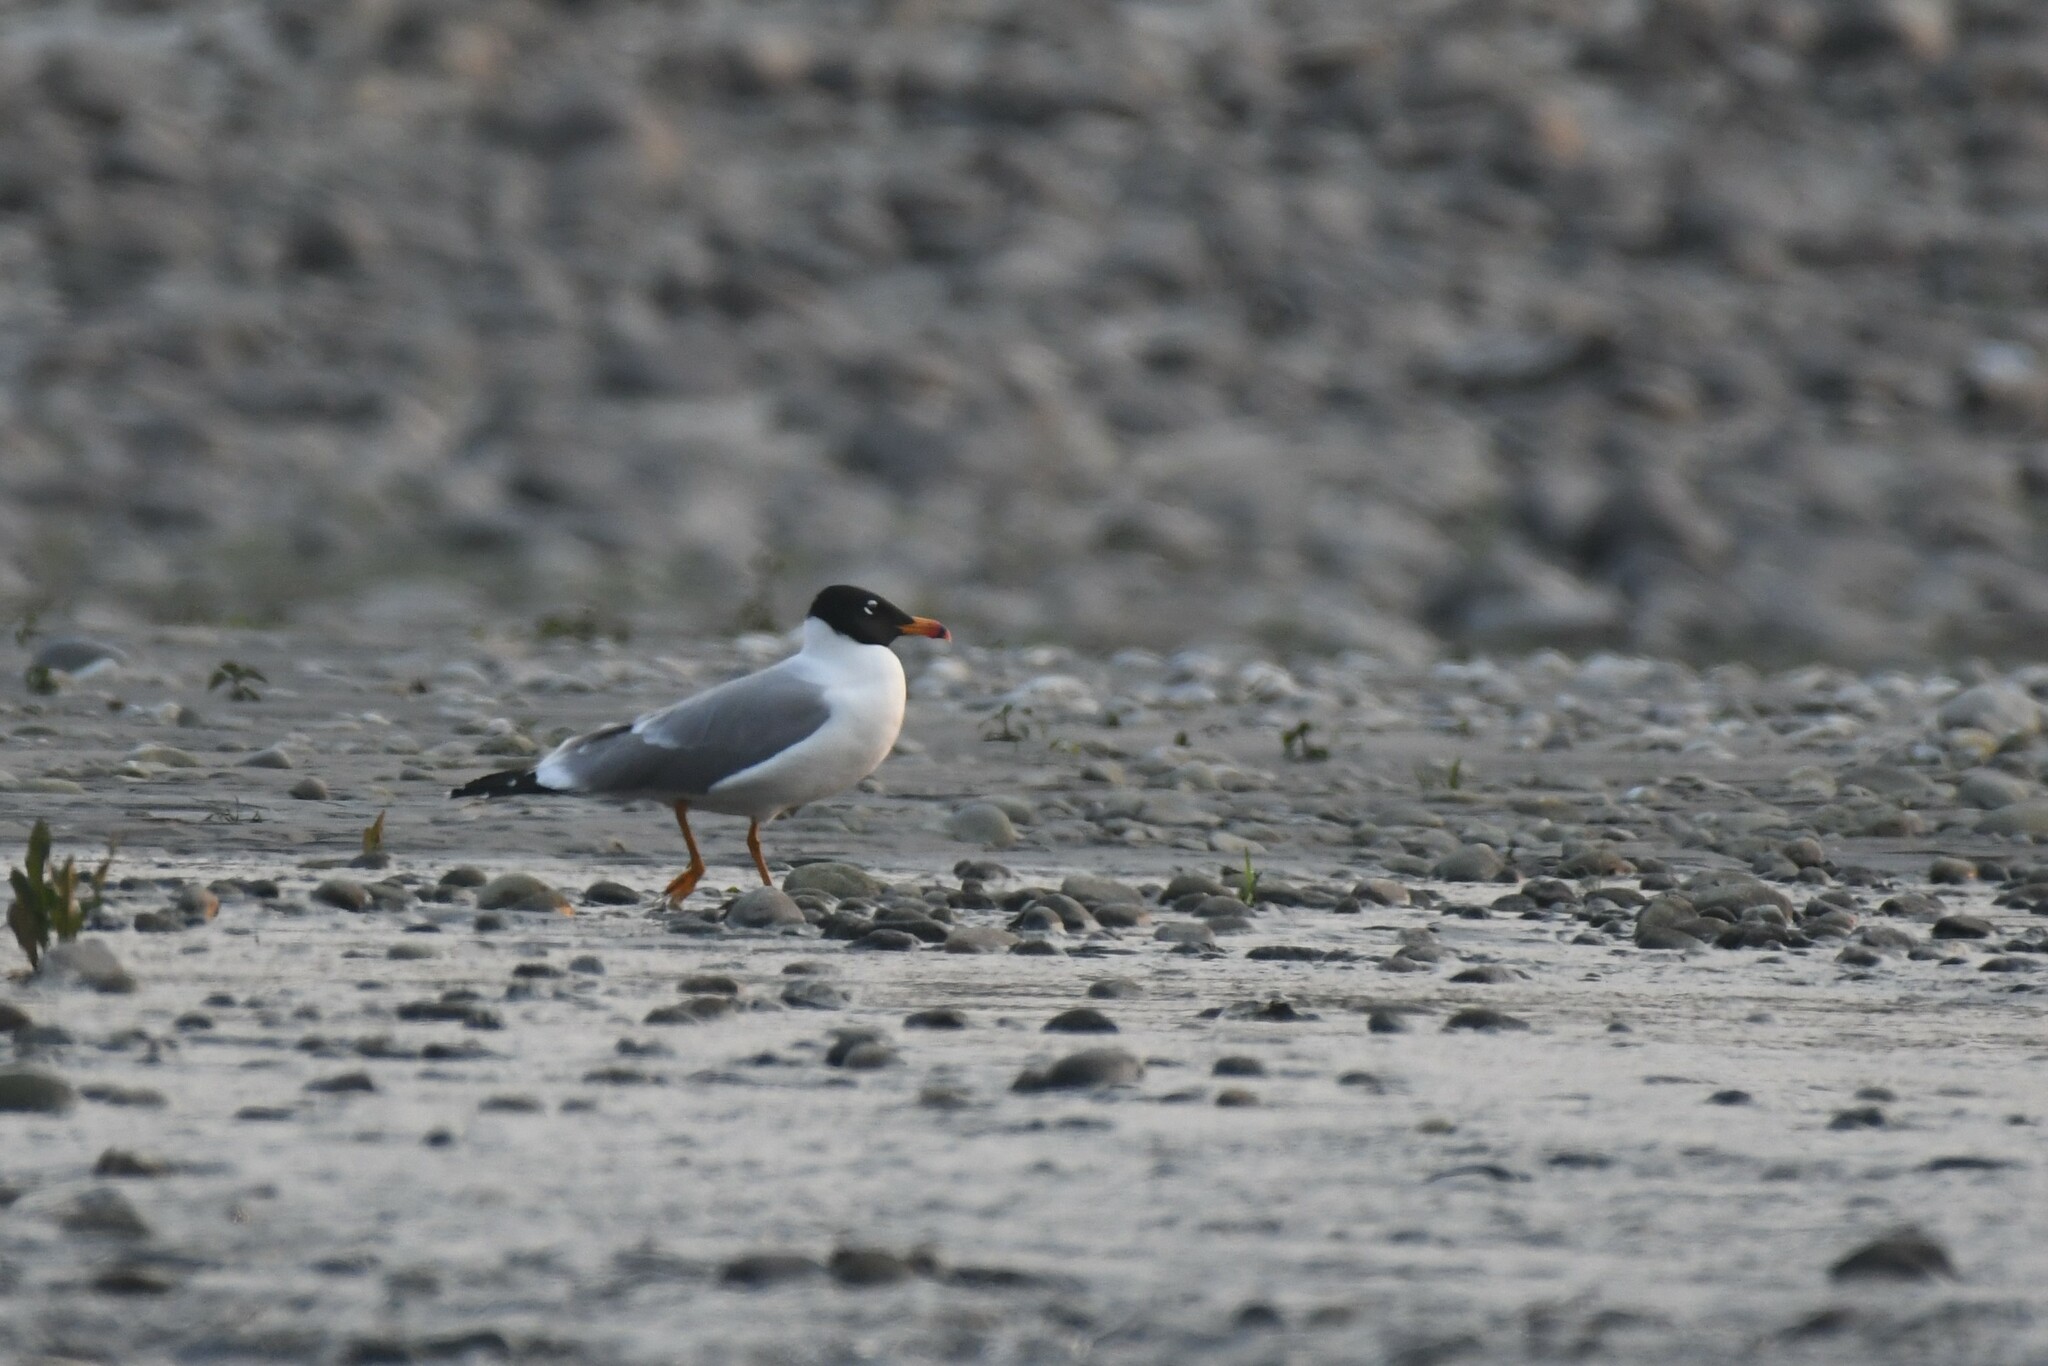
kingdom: Animalia
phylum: Chordata
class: Aves
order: Charadriiformes
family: Laridae
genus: Ichthyaetus
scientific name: Ichthyaetus ichthyaetus
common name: Pallas's gull
